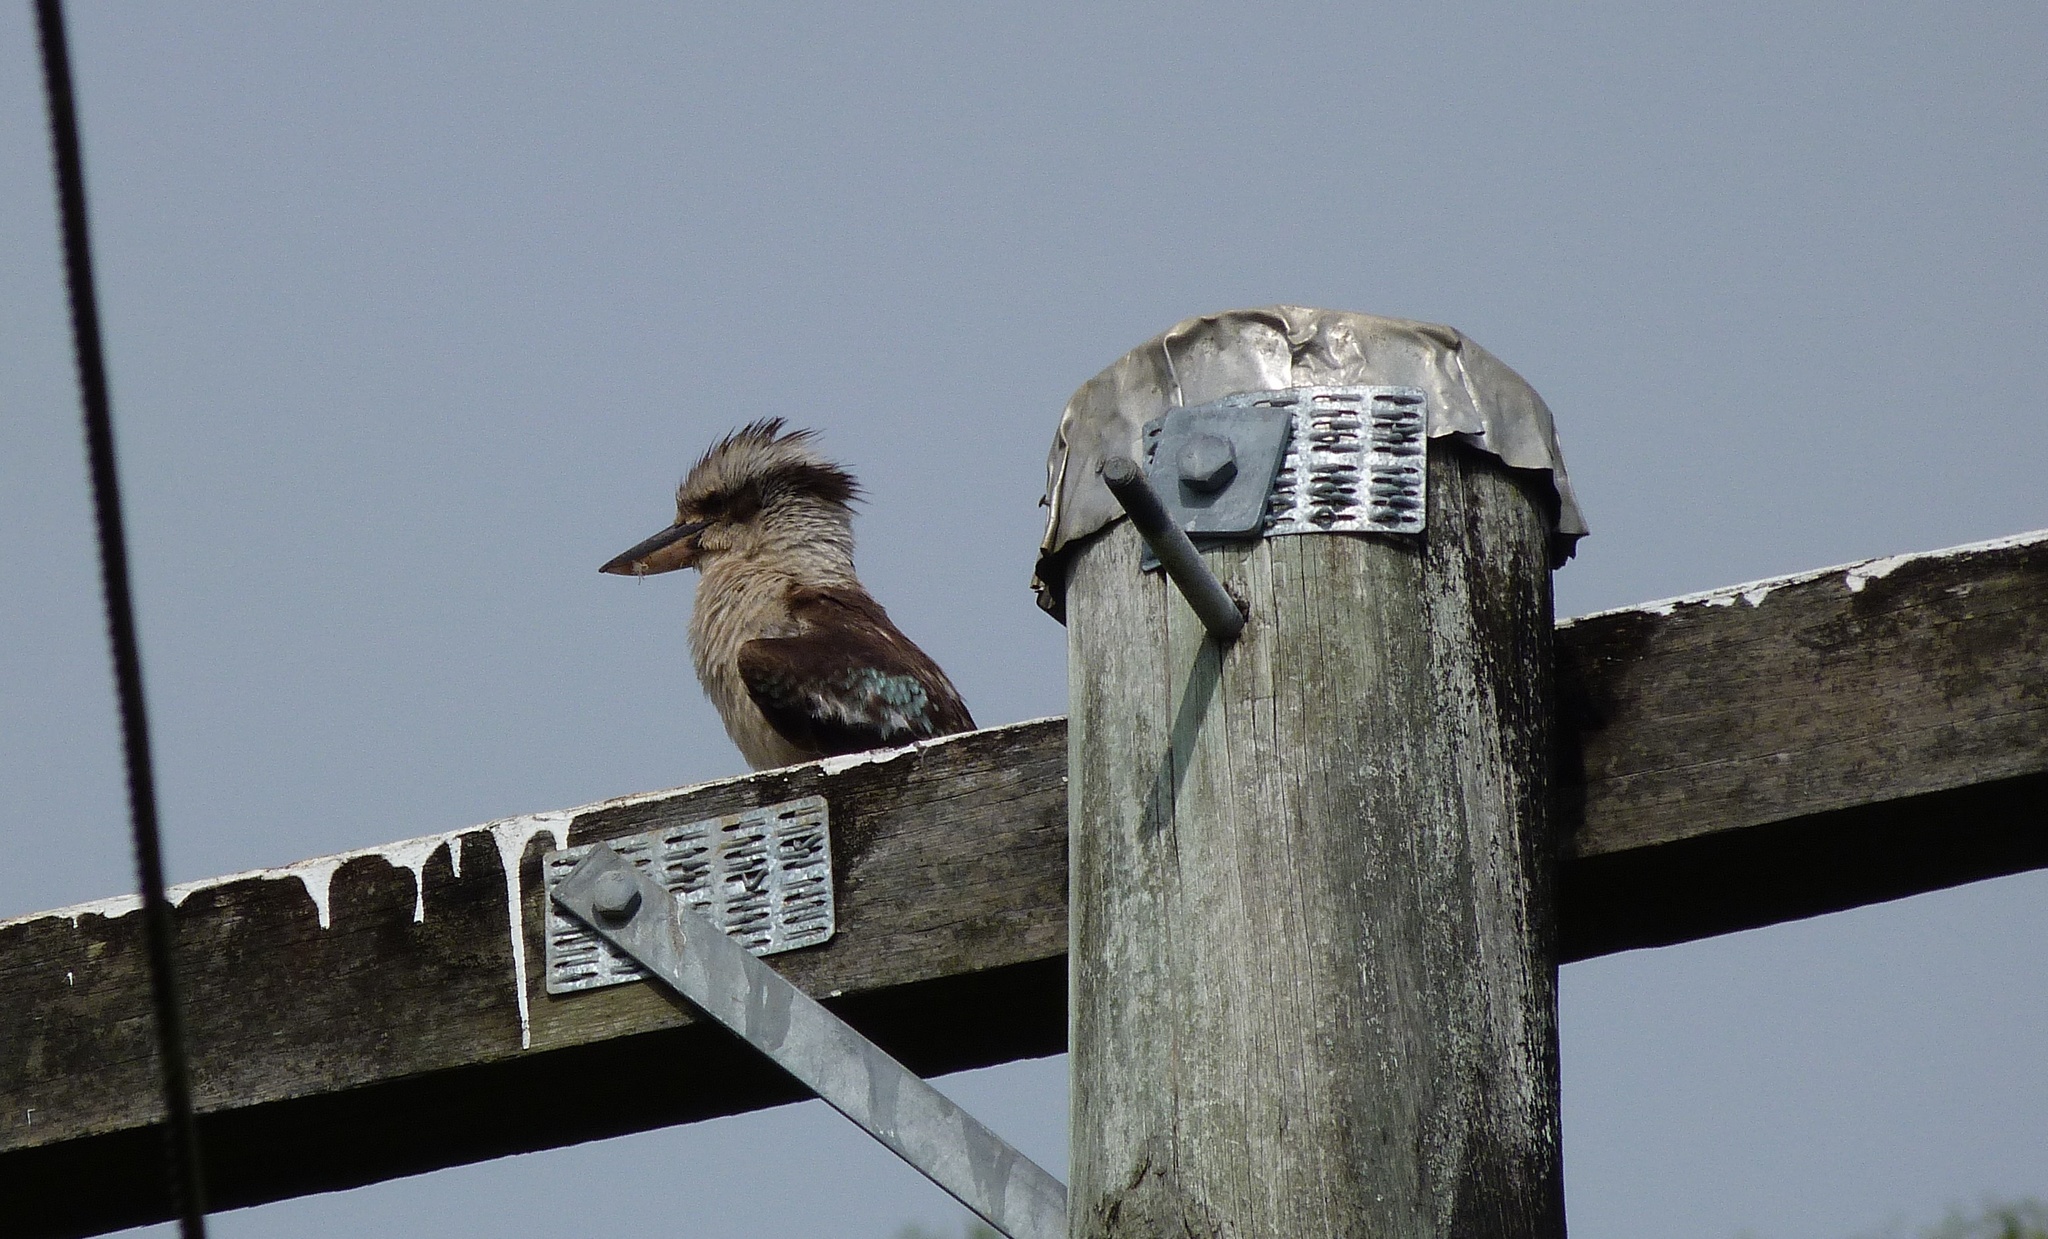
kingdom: Animalia
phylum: Chordata
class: Aves
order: Coraciiformes
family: Alcedinidae
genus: Dacelo
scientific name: Dacelo novaeguineae
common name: Laughing kookaburra
